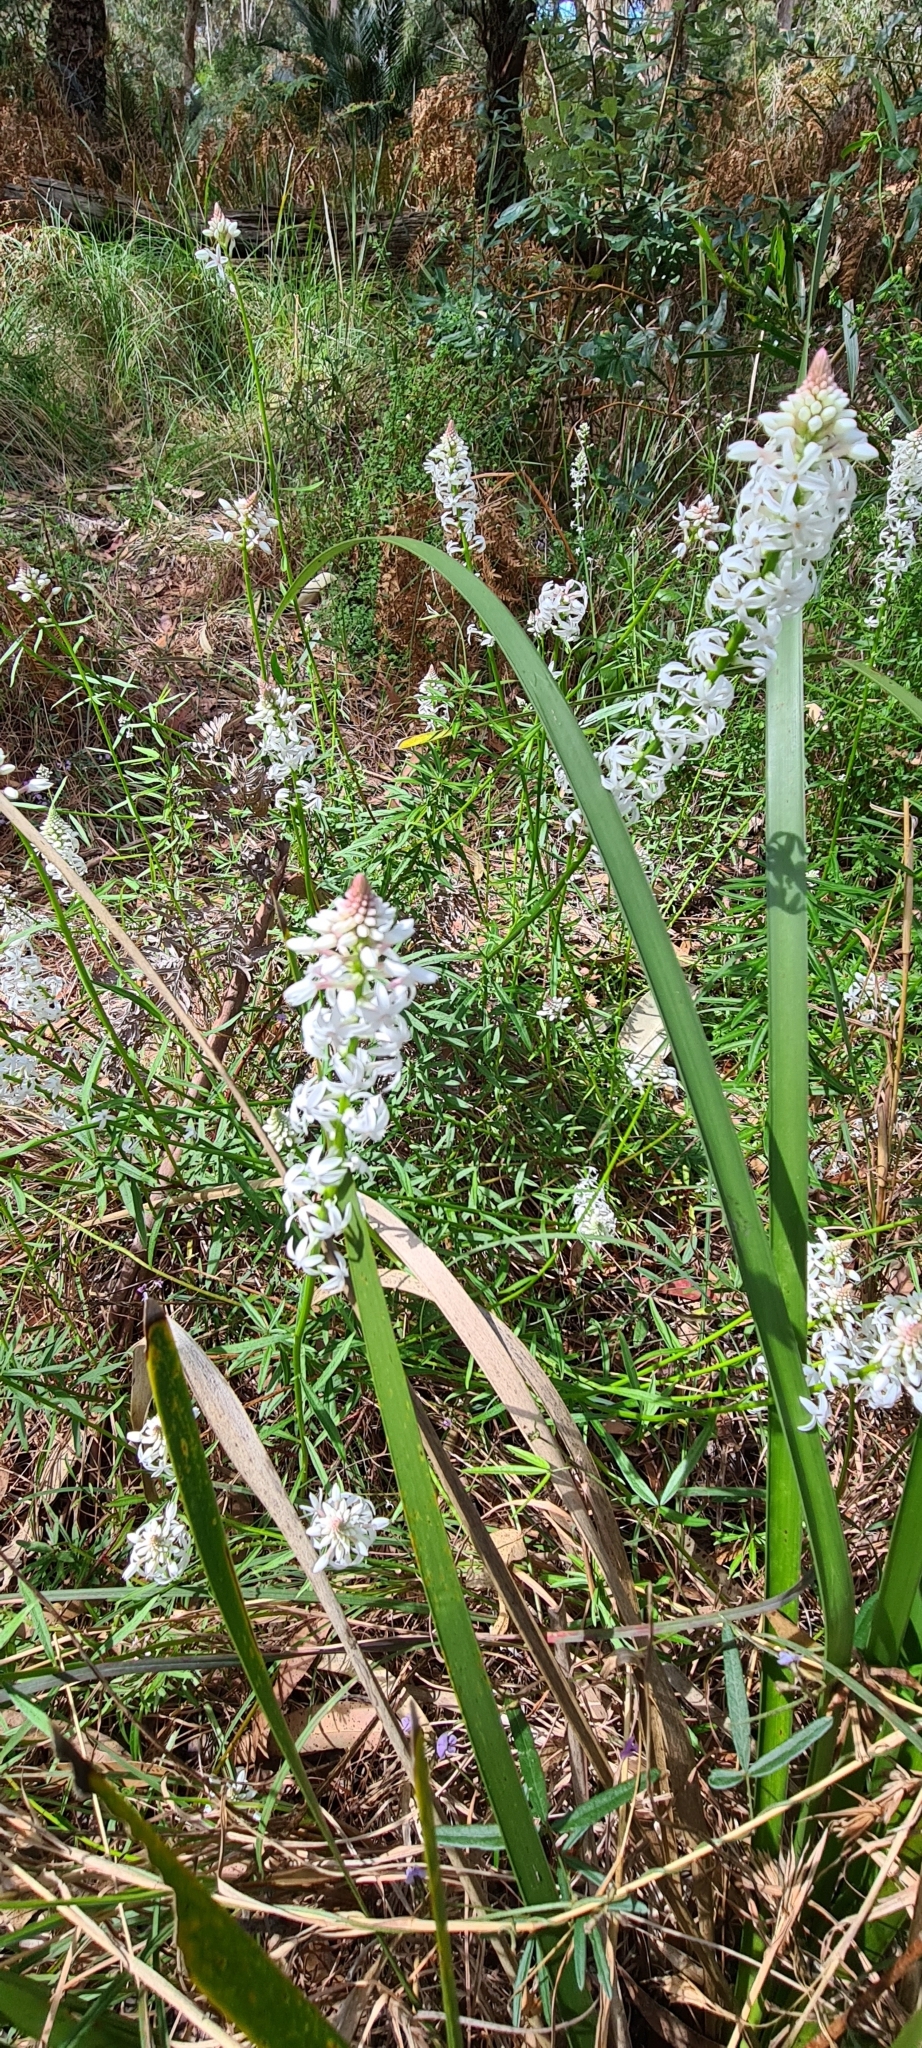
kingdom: Plantae
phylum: Tracheophyta
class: Magnoliopsida
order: Celastrales
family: Celastraceae
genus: Stackhousia
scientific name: Stackhousia monogyna
